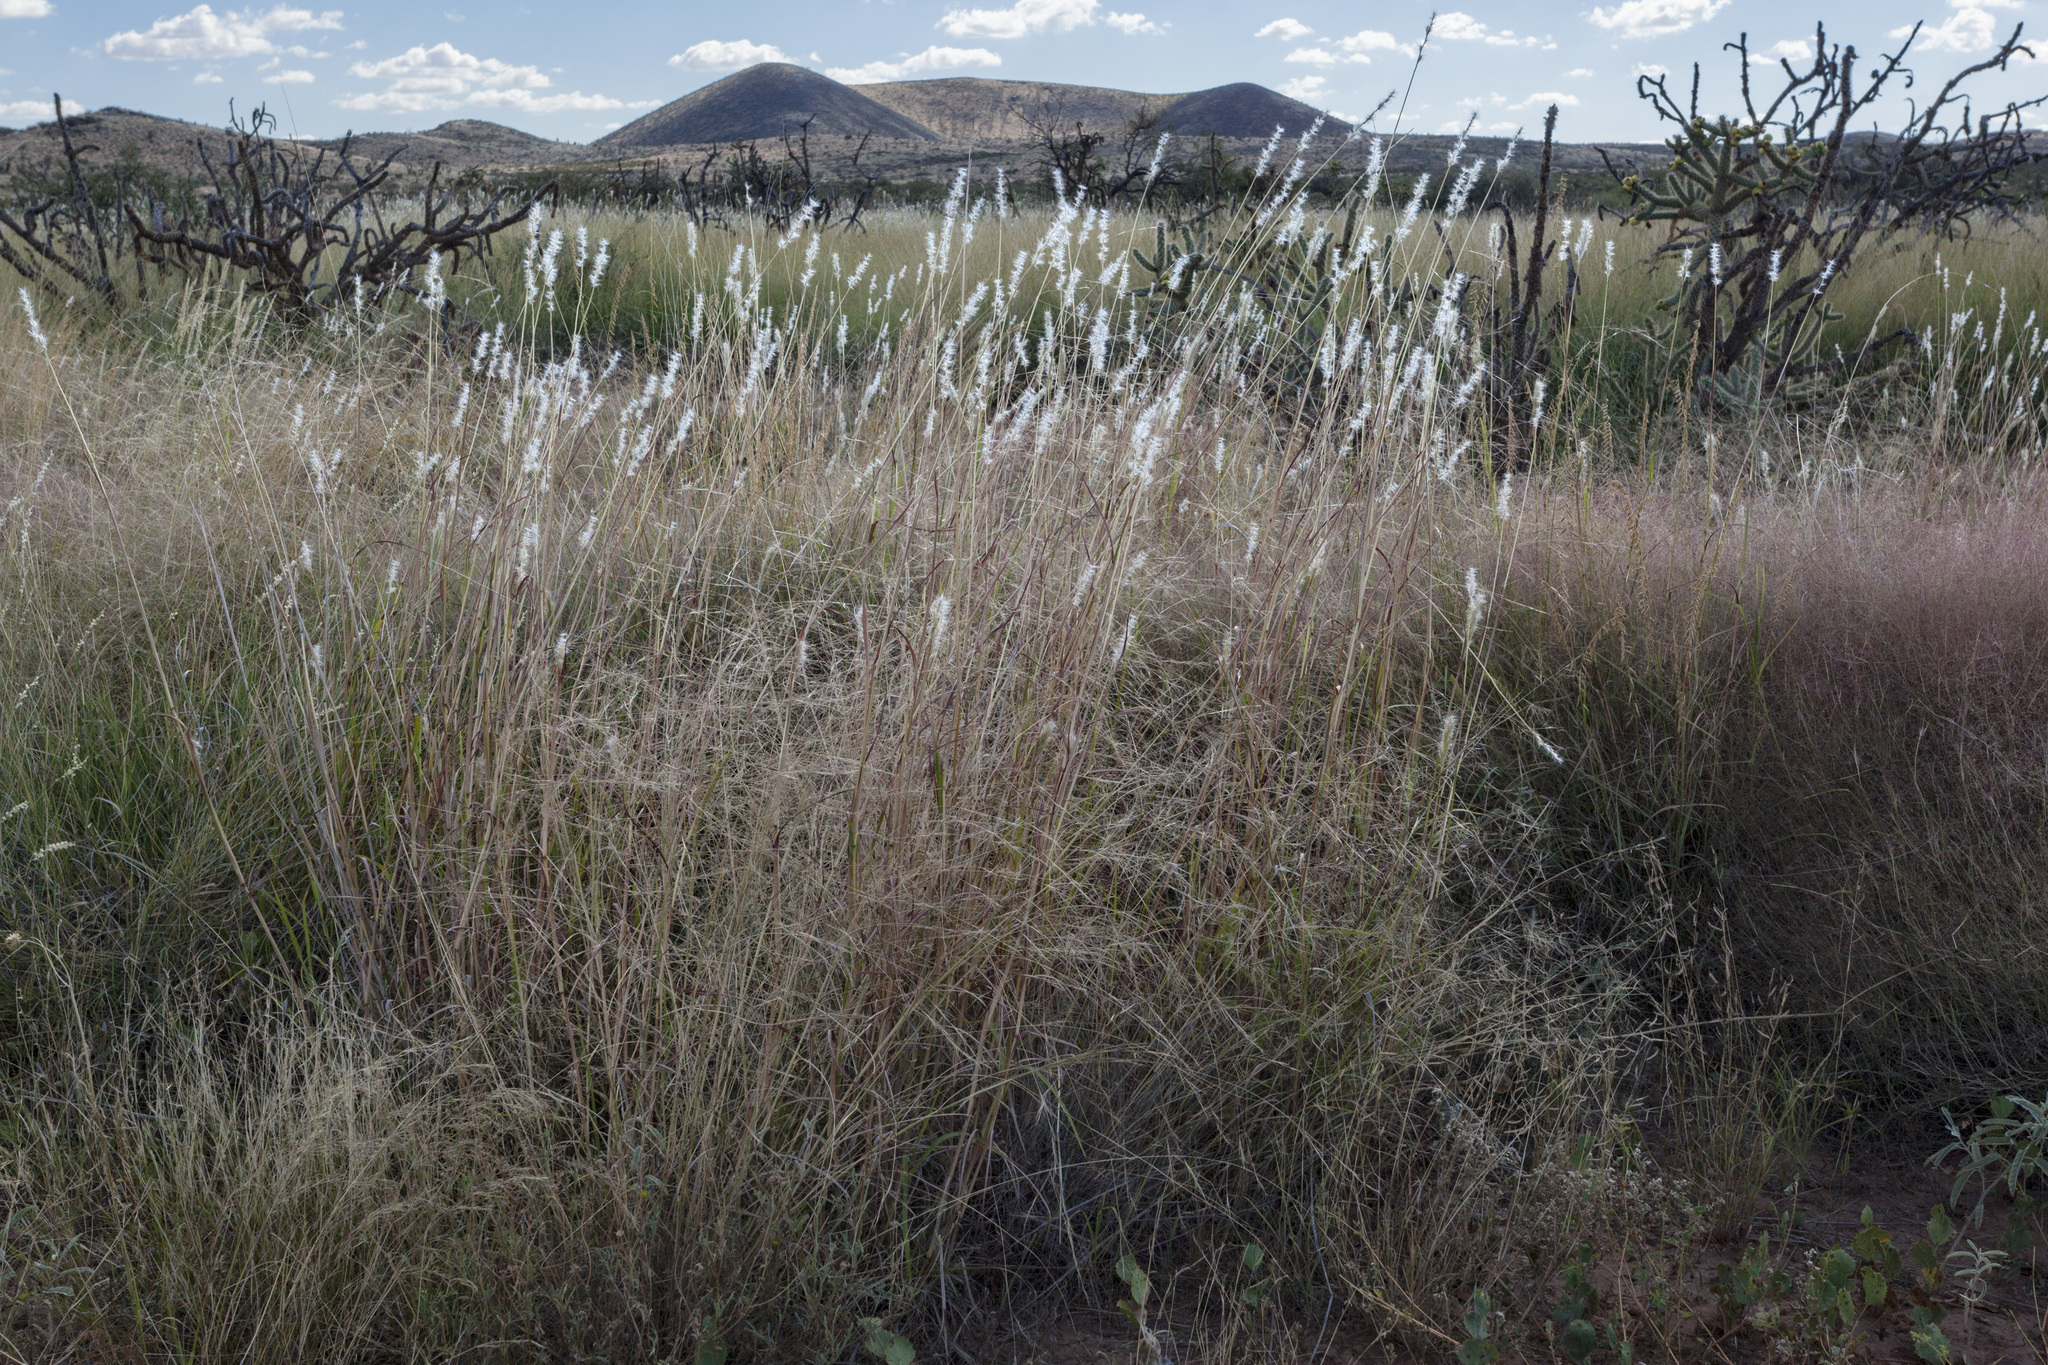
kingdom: Plantae
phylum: Tracheophyta
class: Liliopsida
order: Poales
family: Poaceae
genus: Bothriochloa
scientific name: Bothriochloa barbinodis
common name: Cane bluestem
